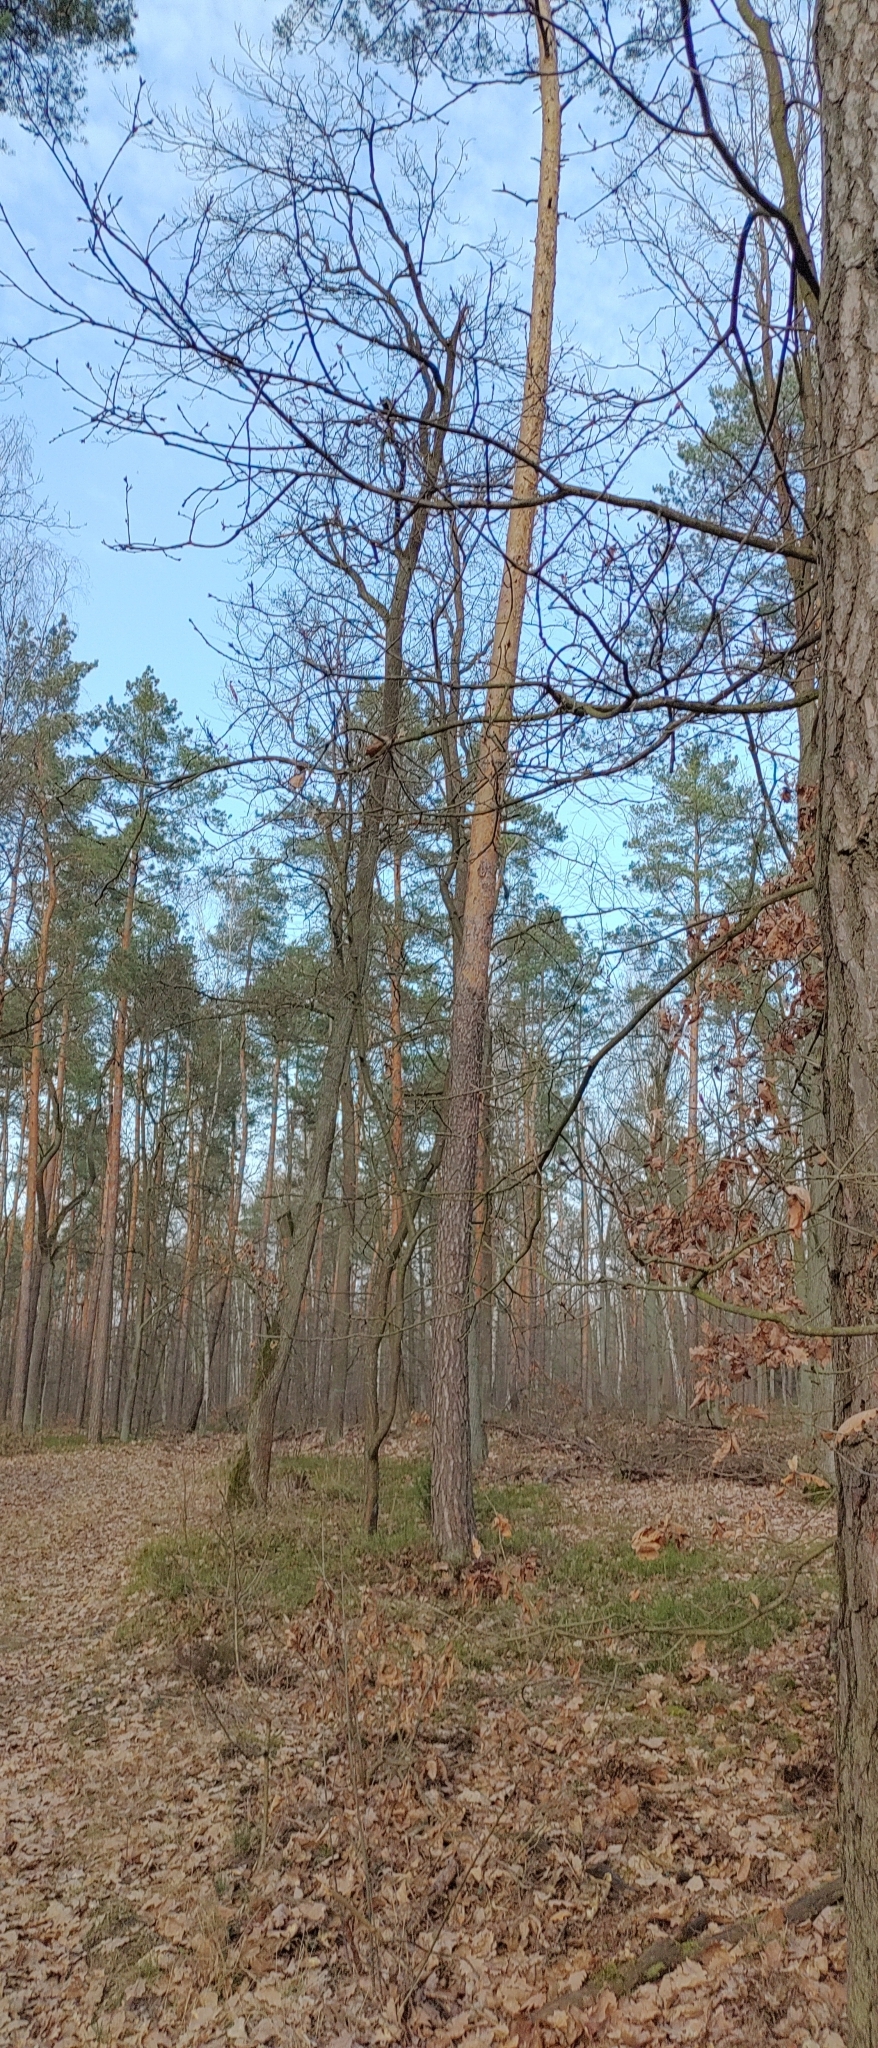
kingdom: Animalia
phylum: Chordata
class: Aves
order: Piciformes
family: Picidae
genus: Dendrocopos
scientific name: Dendrocopos major
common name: Great spotted woodpecker
